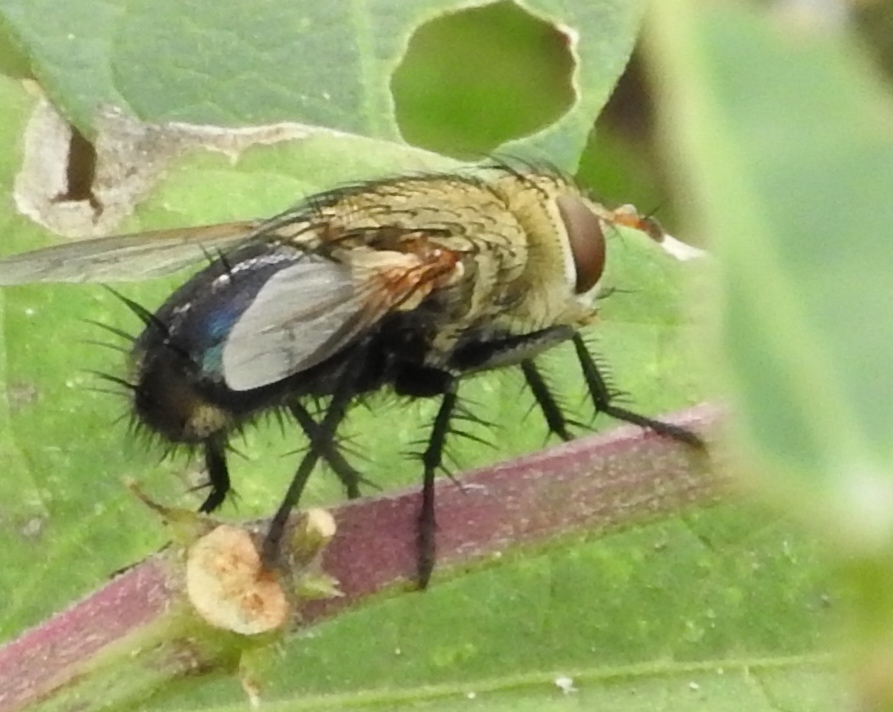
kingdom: Animalia
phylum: Arthropoda
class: Insecta
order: Diptera
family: Tachinidae
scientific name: Tachinidae
